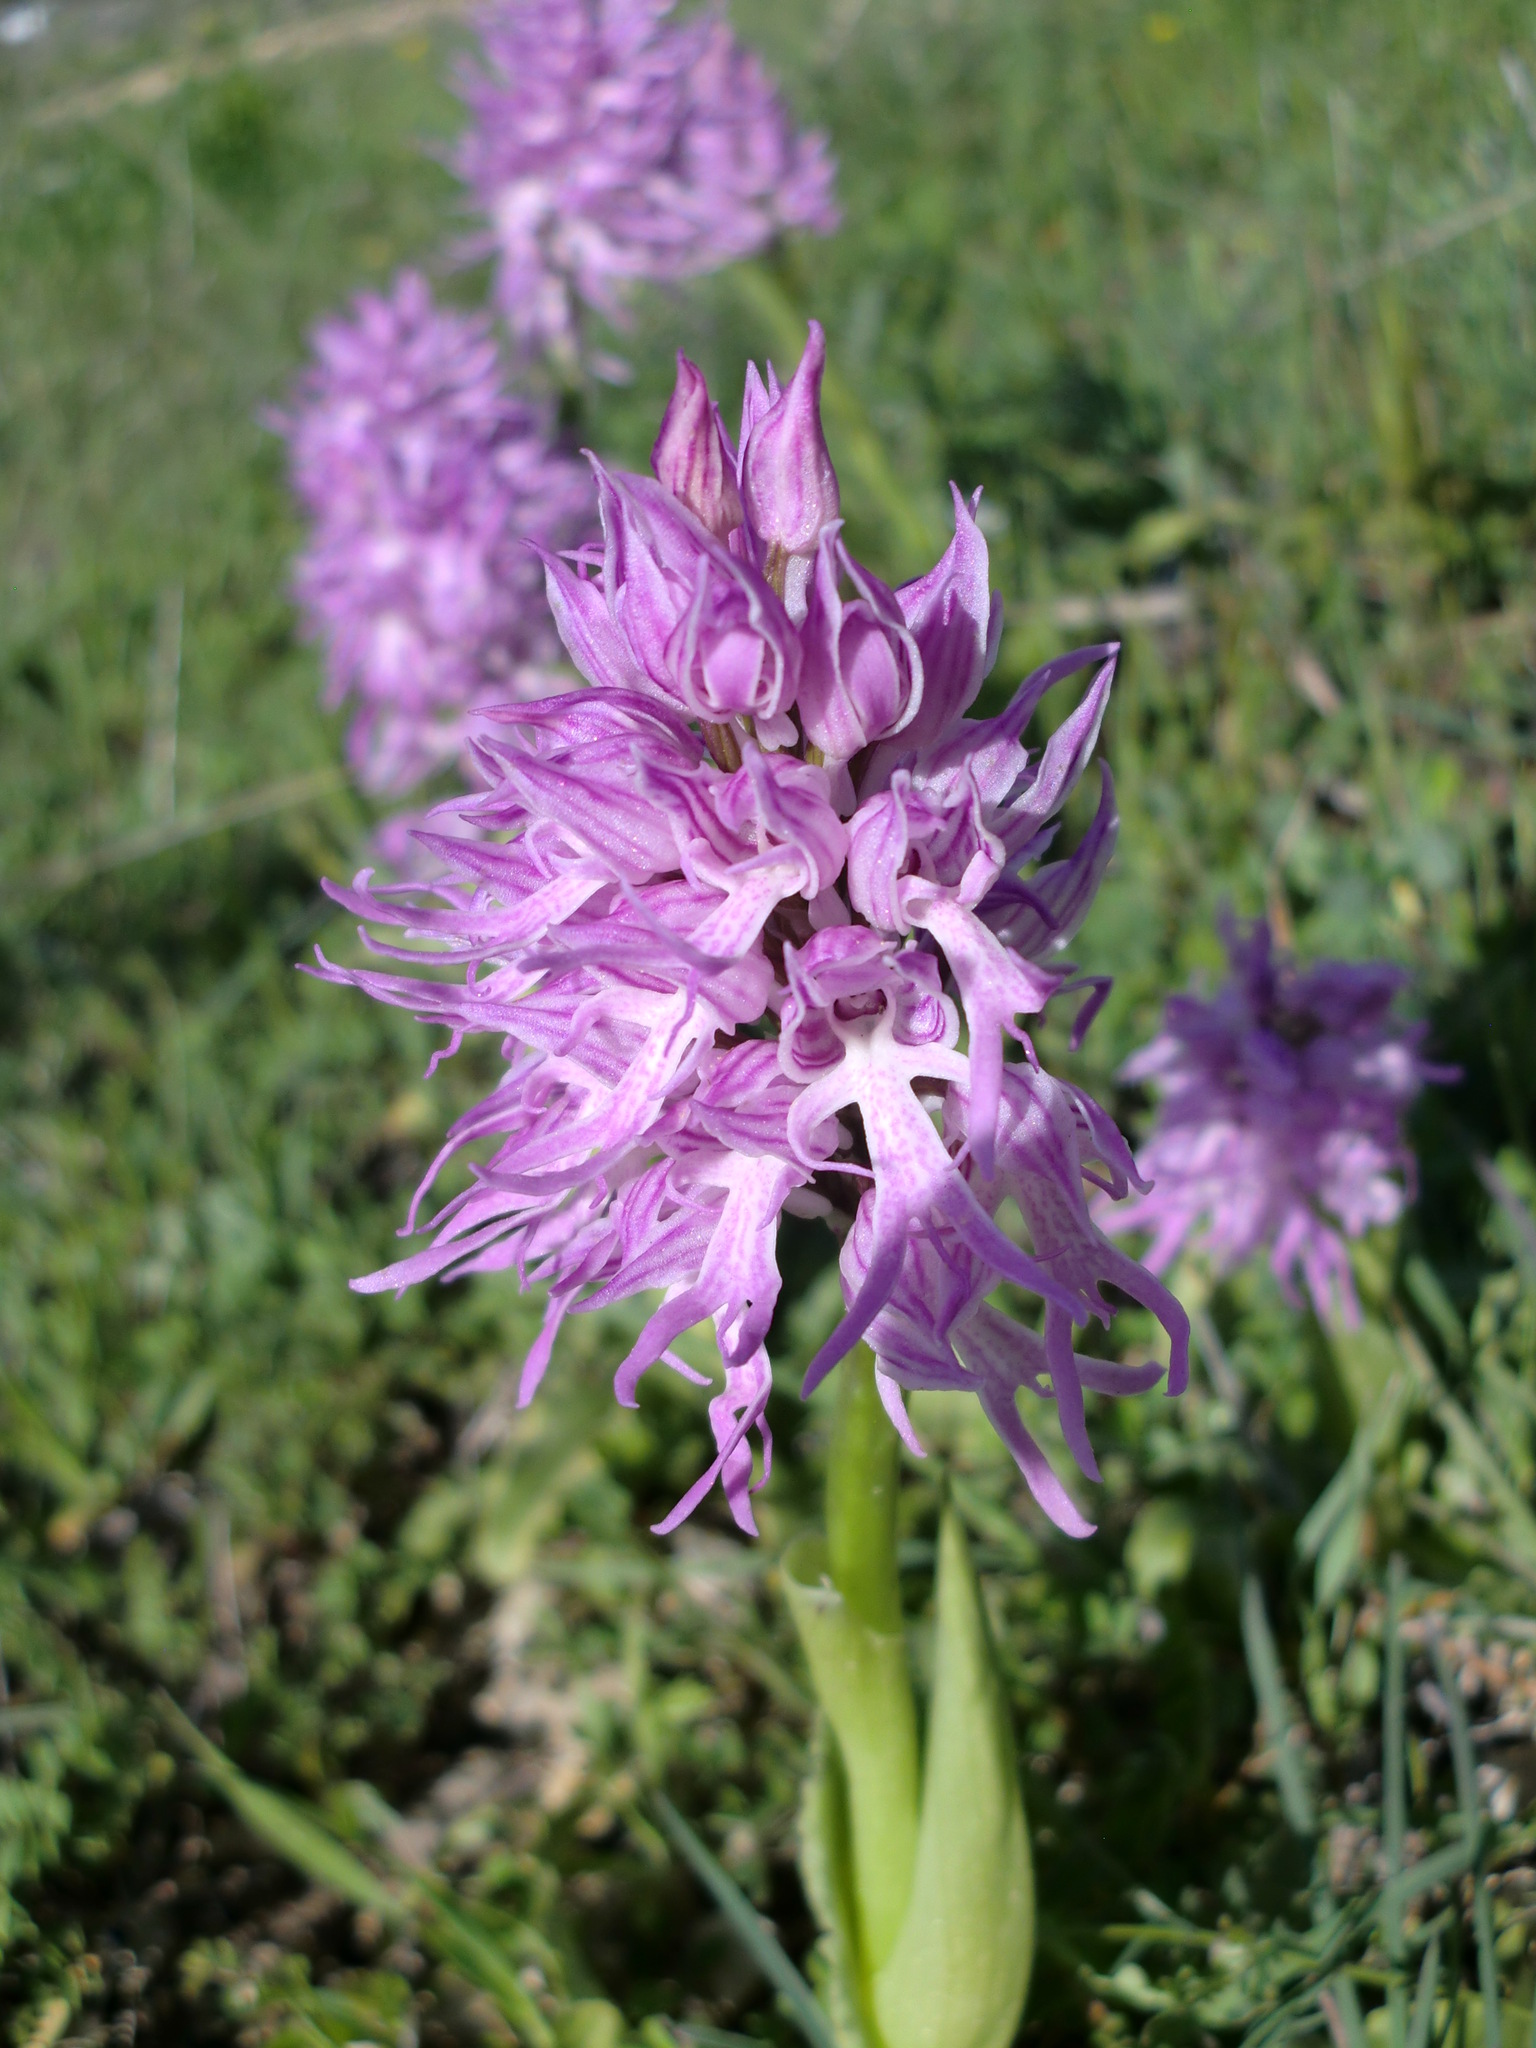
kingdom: Plantae
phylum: Tracheophyta
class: Liliopsida
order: Asparagales
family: Orchidaceae
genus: Orchis
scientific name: Orchis italica
